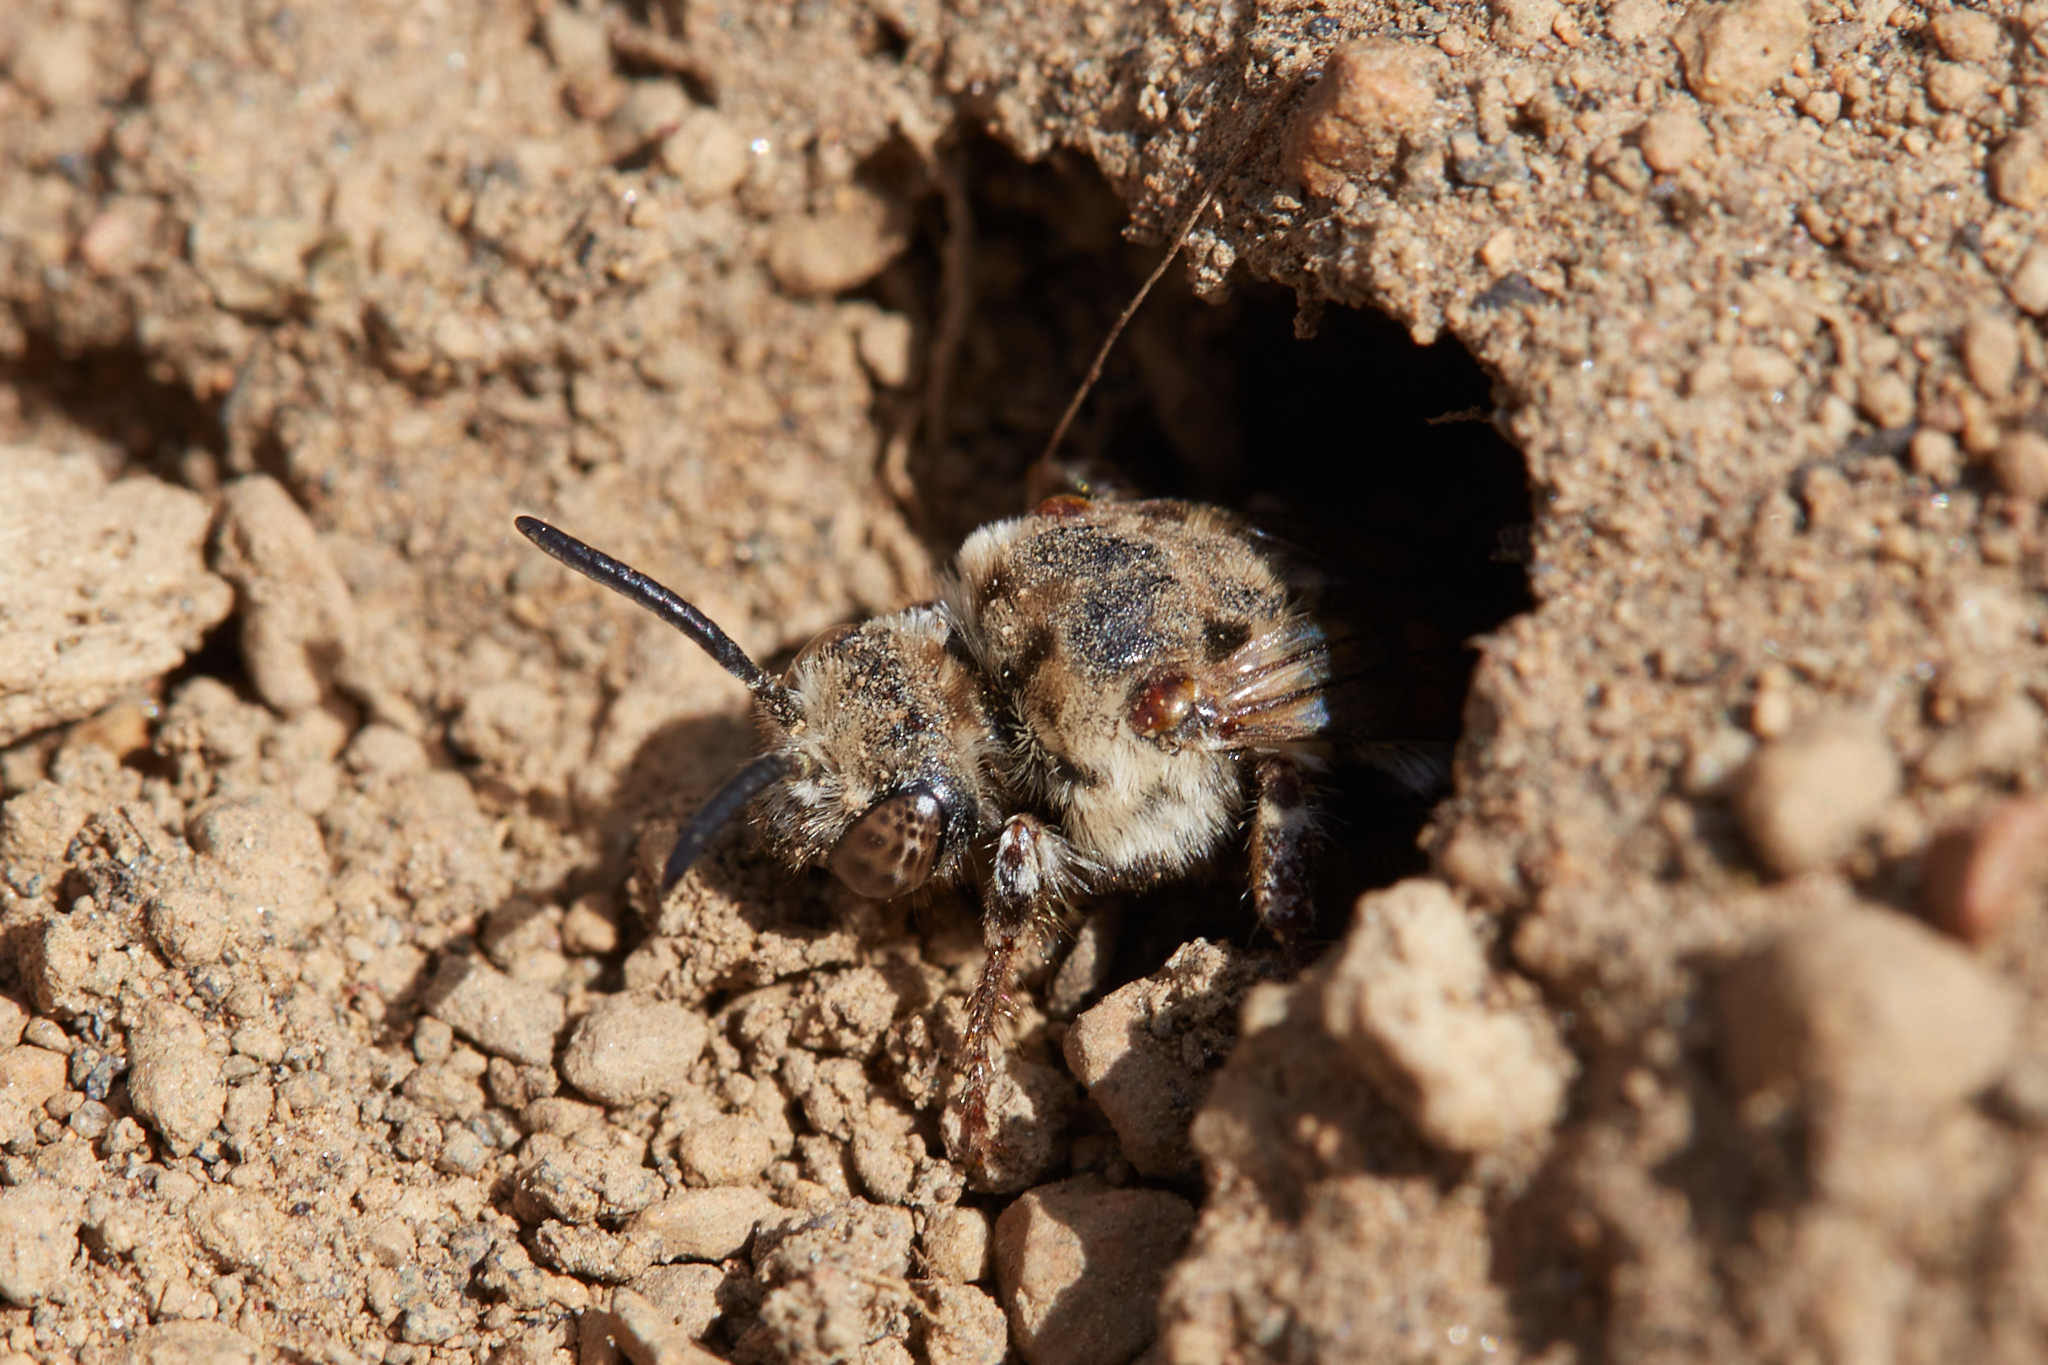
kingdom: Animalia
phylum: Arthropoda
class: Insecta
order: Hymenoptera
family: Apidae
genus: Brachymelecta
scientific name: Brachymelecta californica
